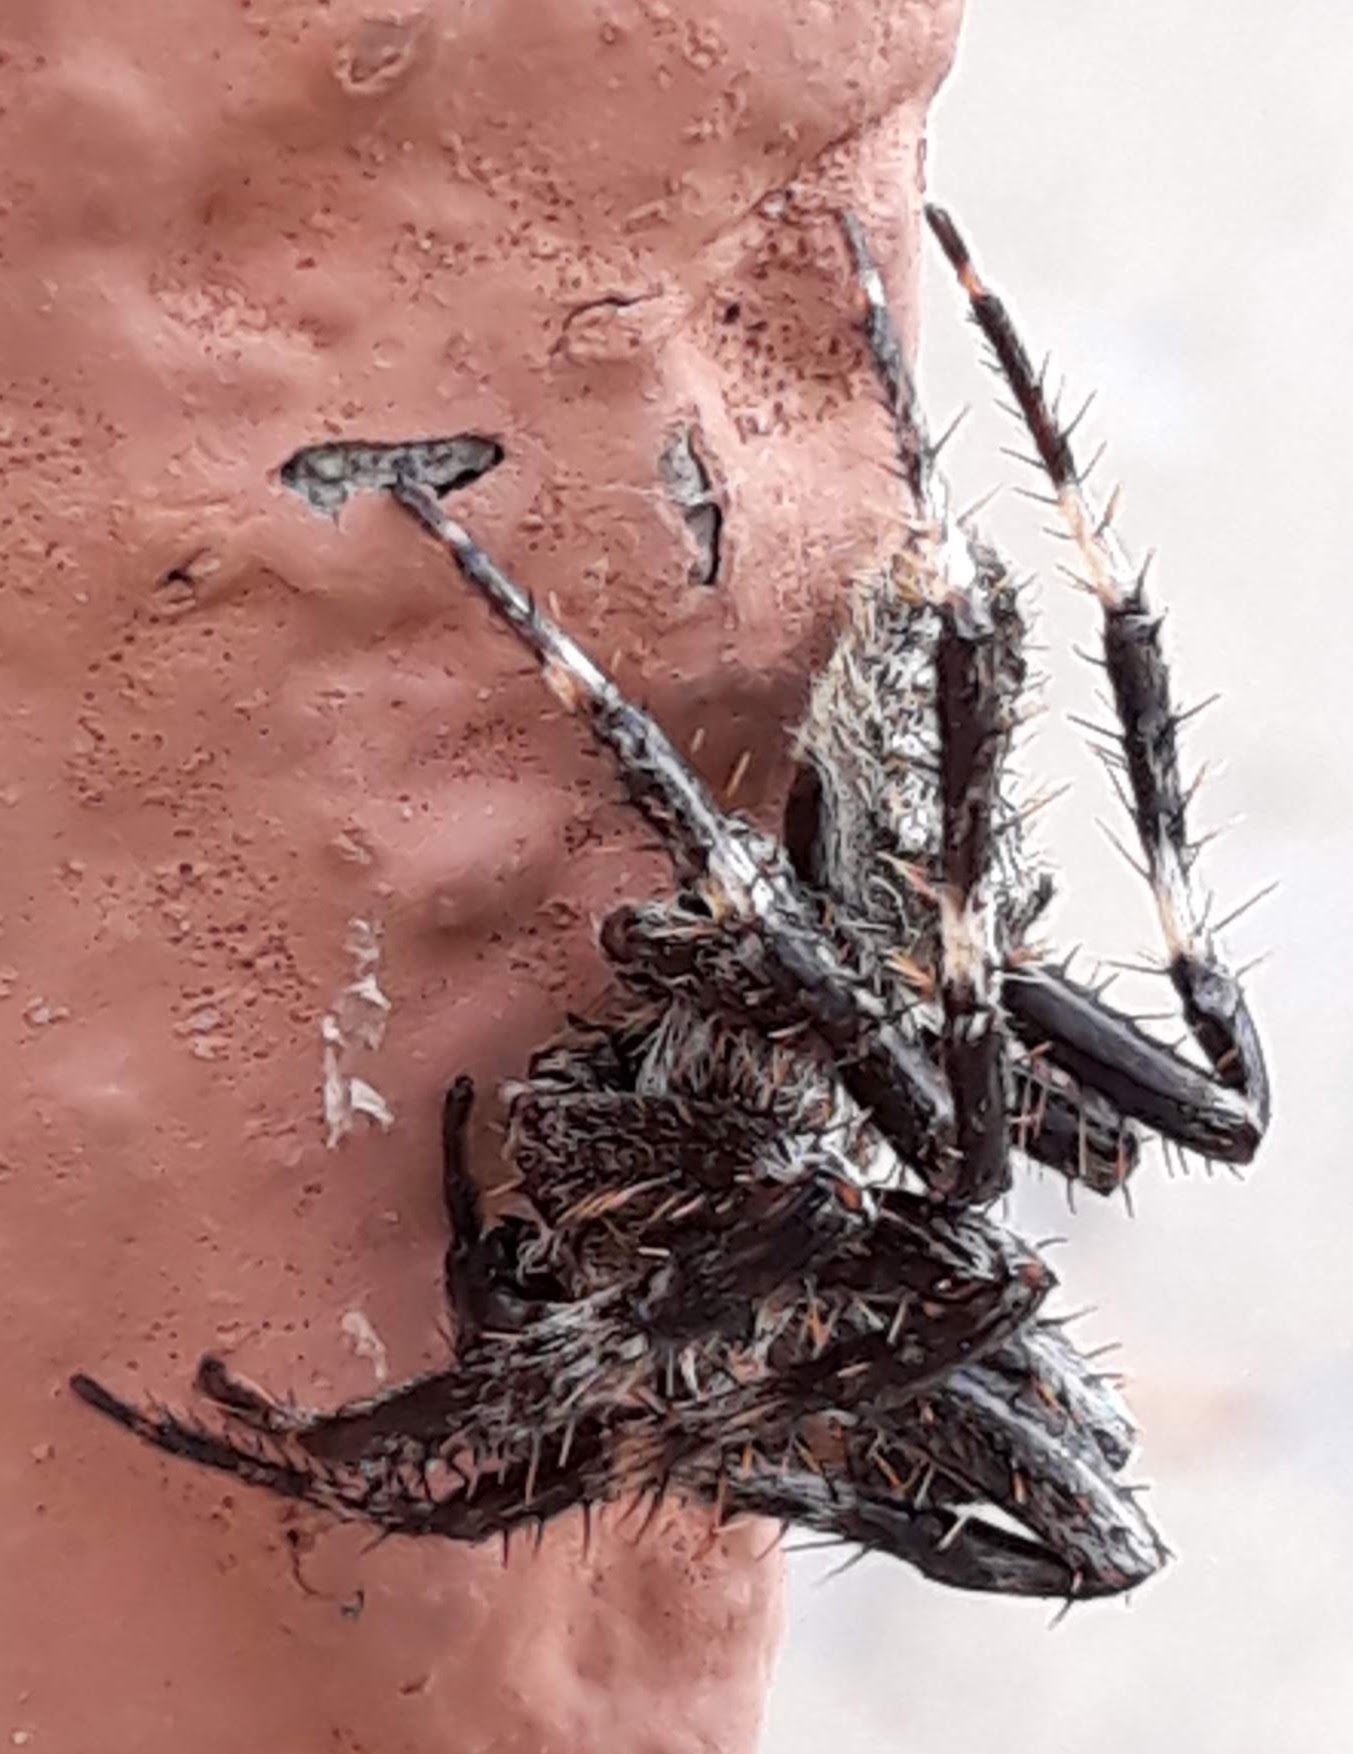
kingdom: Animalia
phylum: Arthropoda
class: Arachnida
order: Araneae
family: Araneidae
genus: Araneus
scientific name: Araneus saevus
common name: Fierce orbweaver
